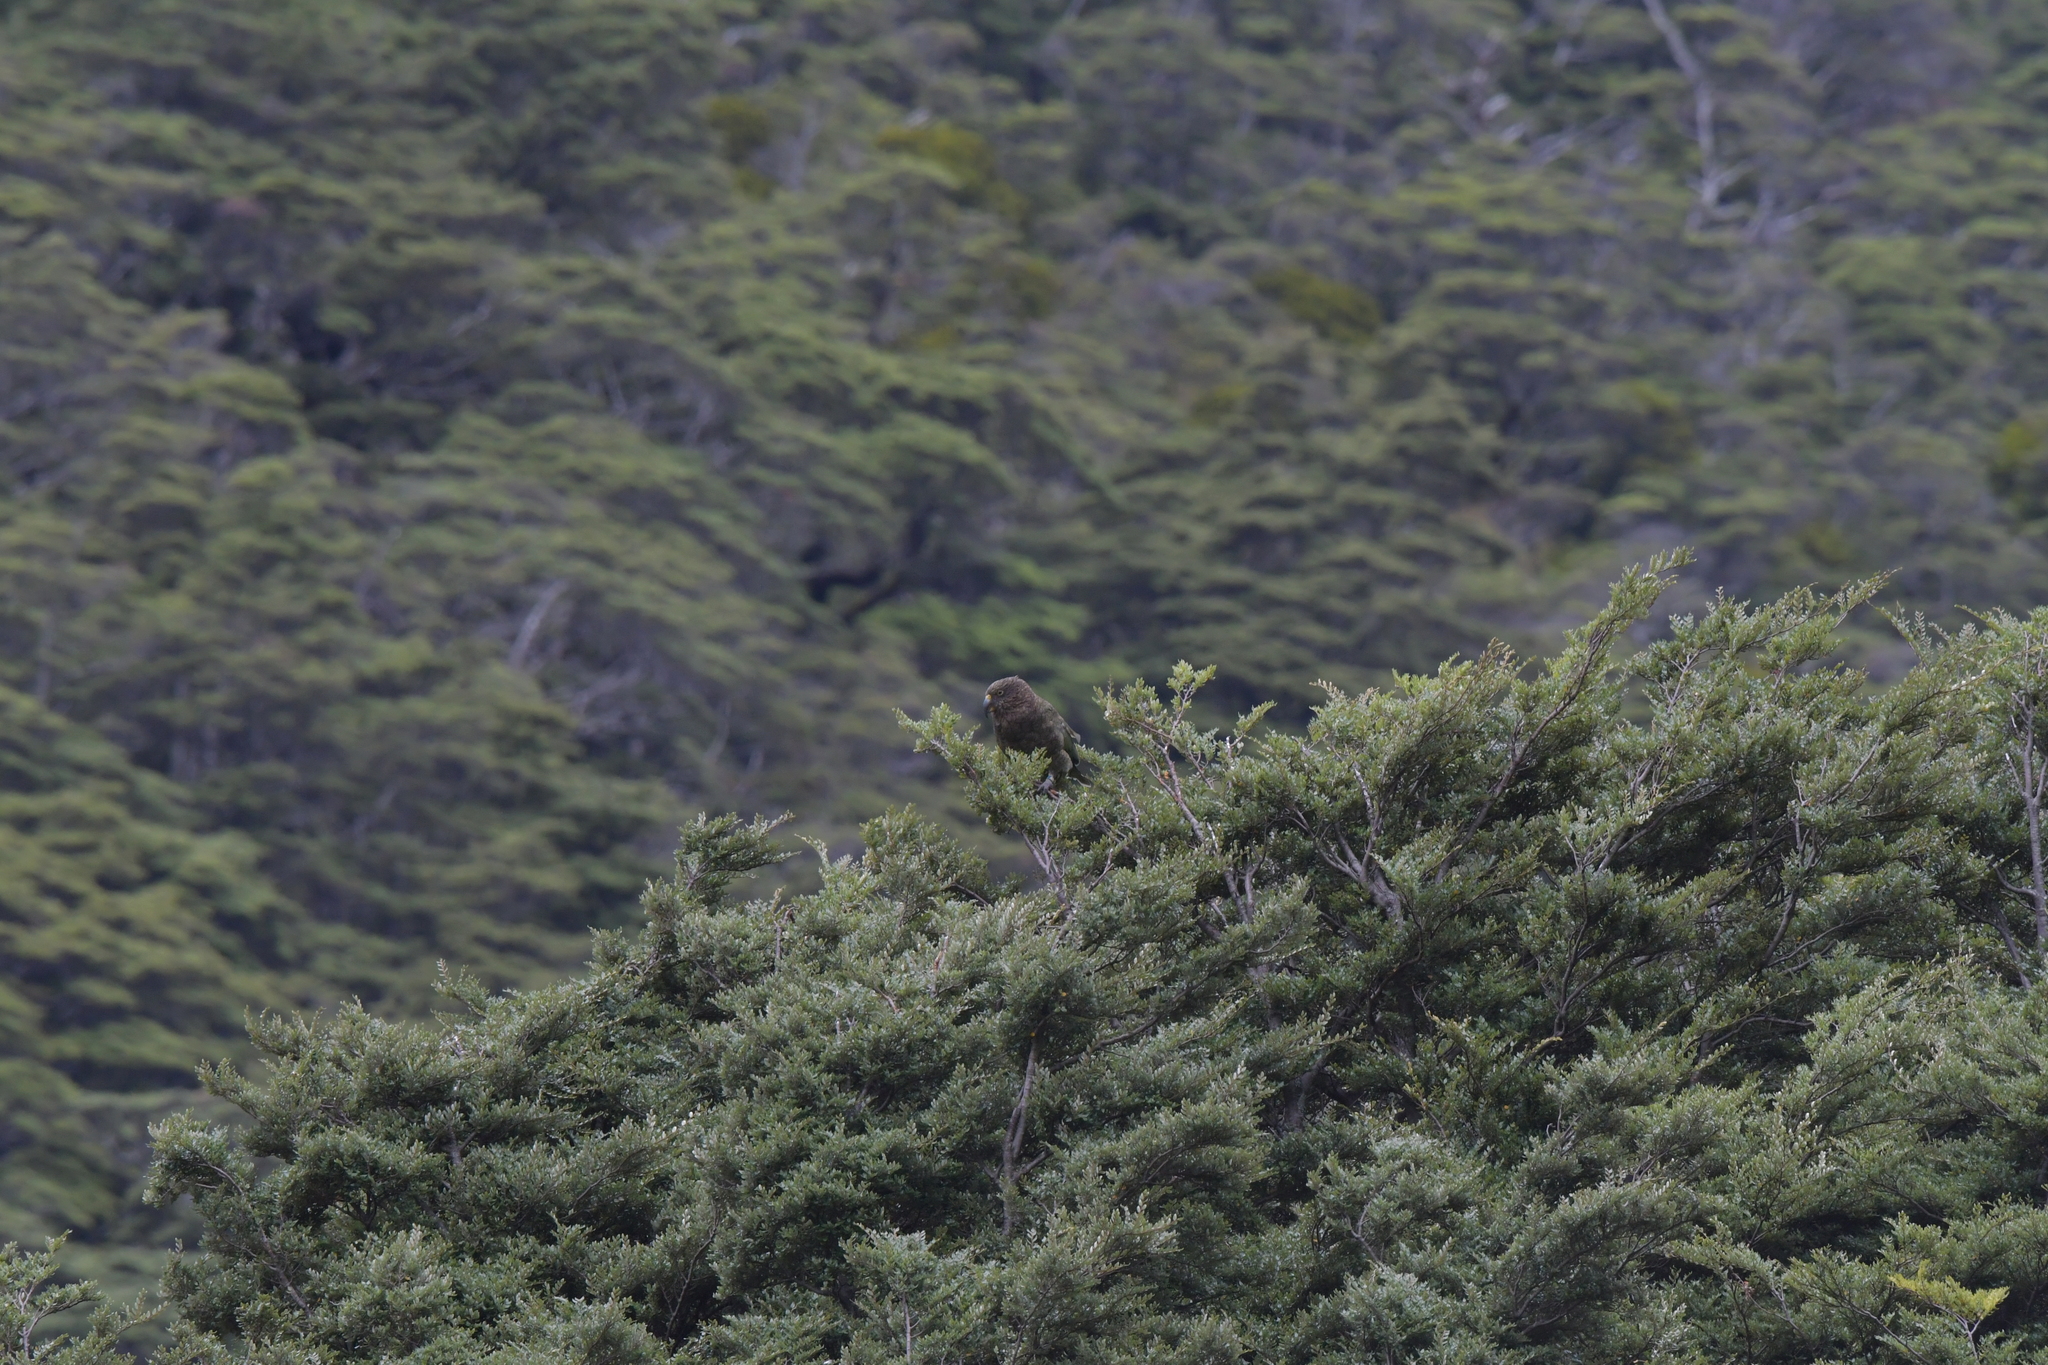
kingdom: Animalia
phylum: Chordata
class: Aves
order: Psittaciformes
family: Psittacidae
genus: Nestor
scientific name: Nestor notabilis
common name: Kea
